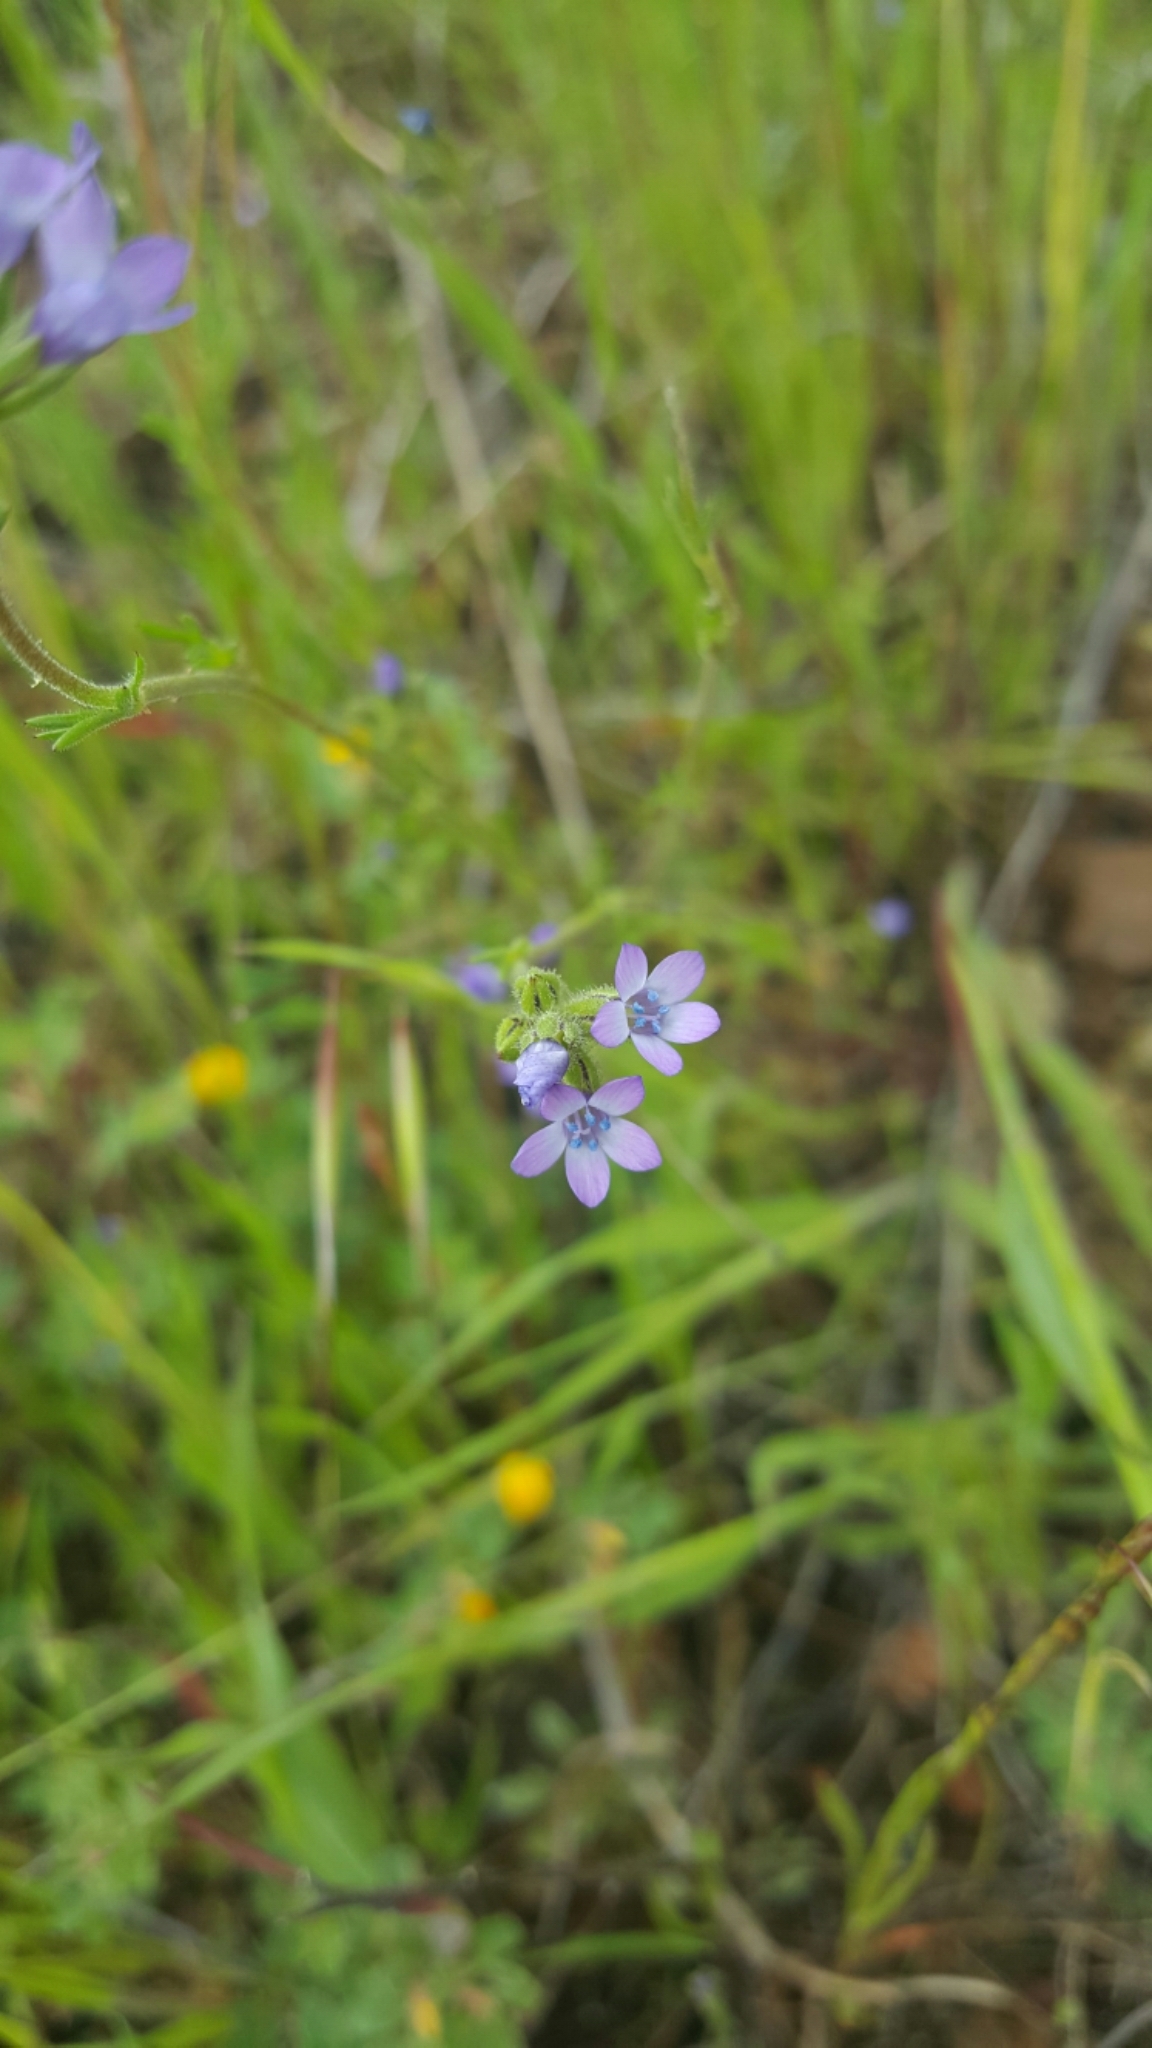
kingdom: Plantae
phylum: Tracheophyta
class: Magnoliopsida
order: Ericales
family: Polemoniaceae
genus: Gilia
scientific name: Gilia clivorum
